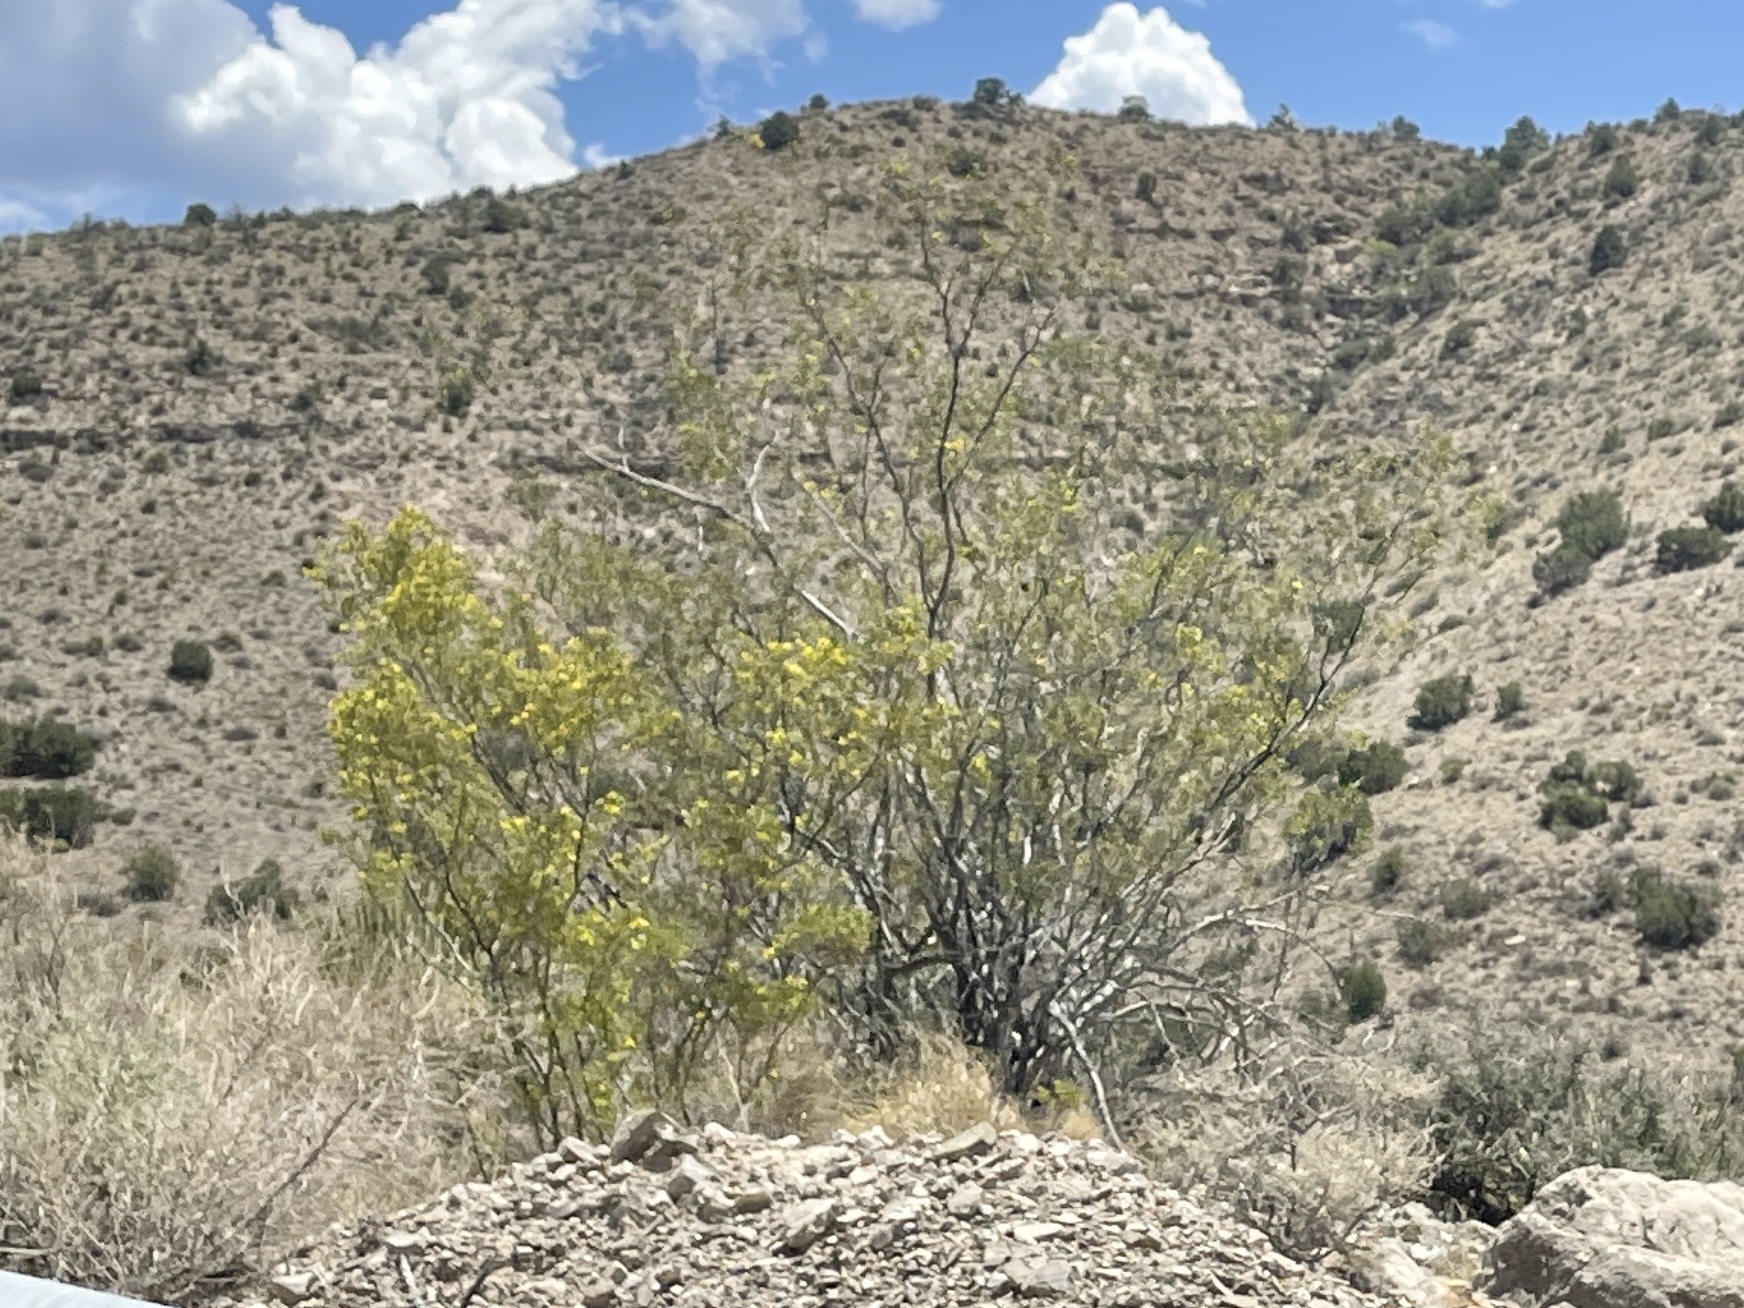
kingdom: Plantae
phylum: Tracheophyta
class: Magnoliopsida
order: Zygophyllales
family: Zygophyllaceae
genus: Larrea
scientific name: Larrea tridentata
